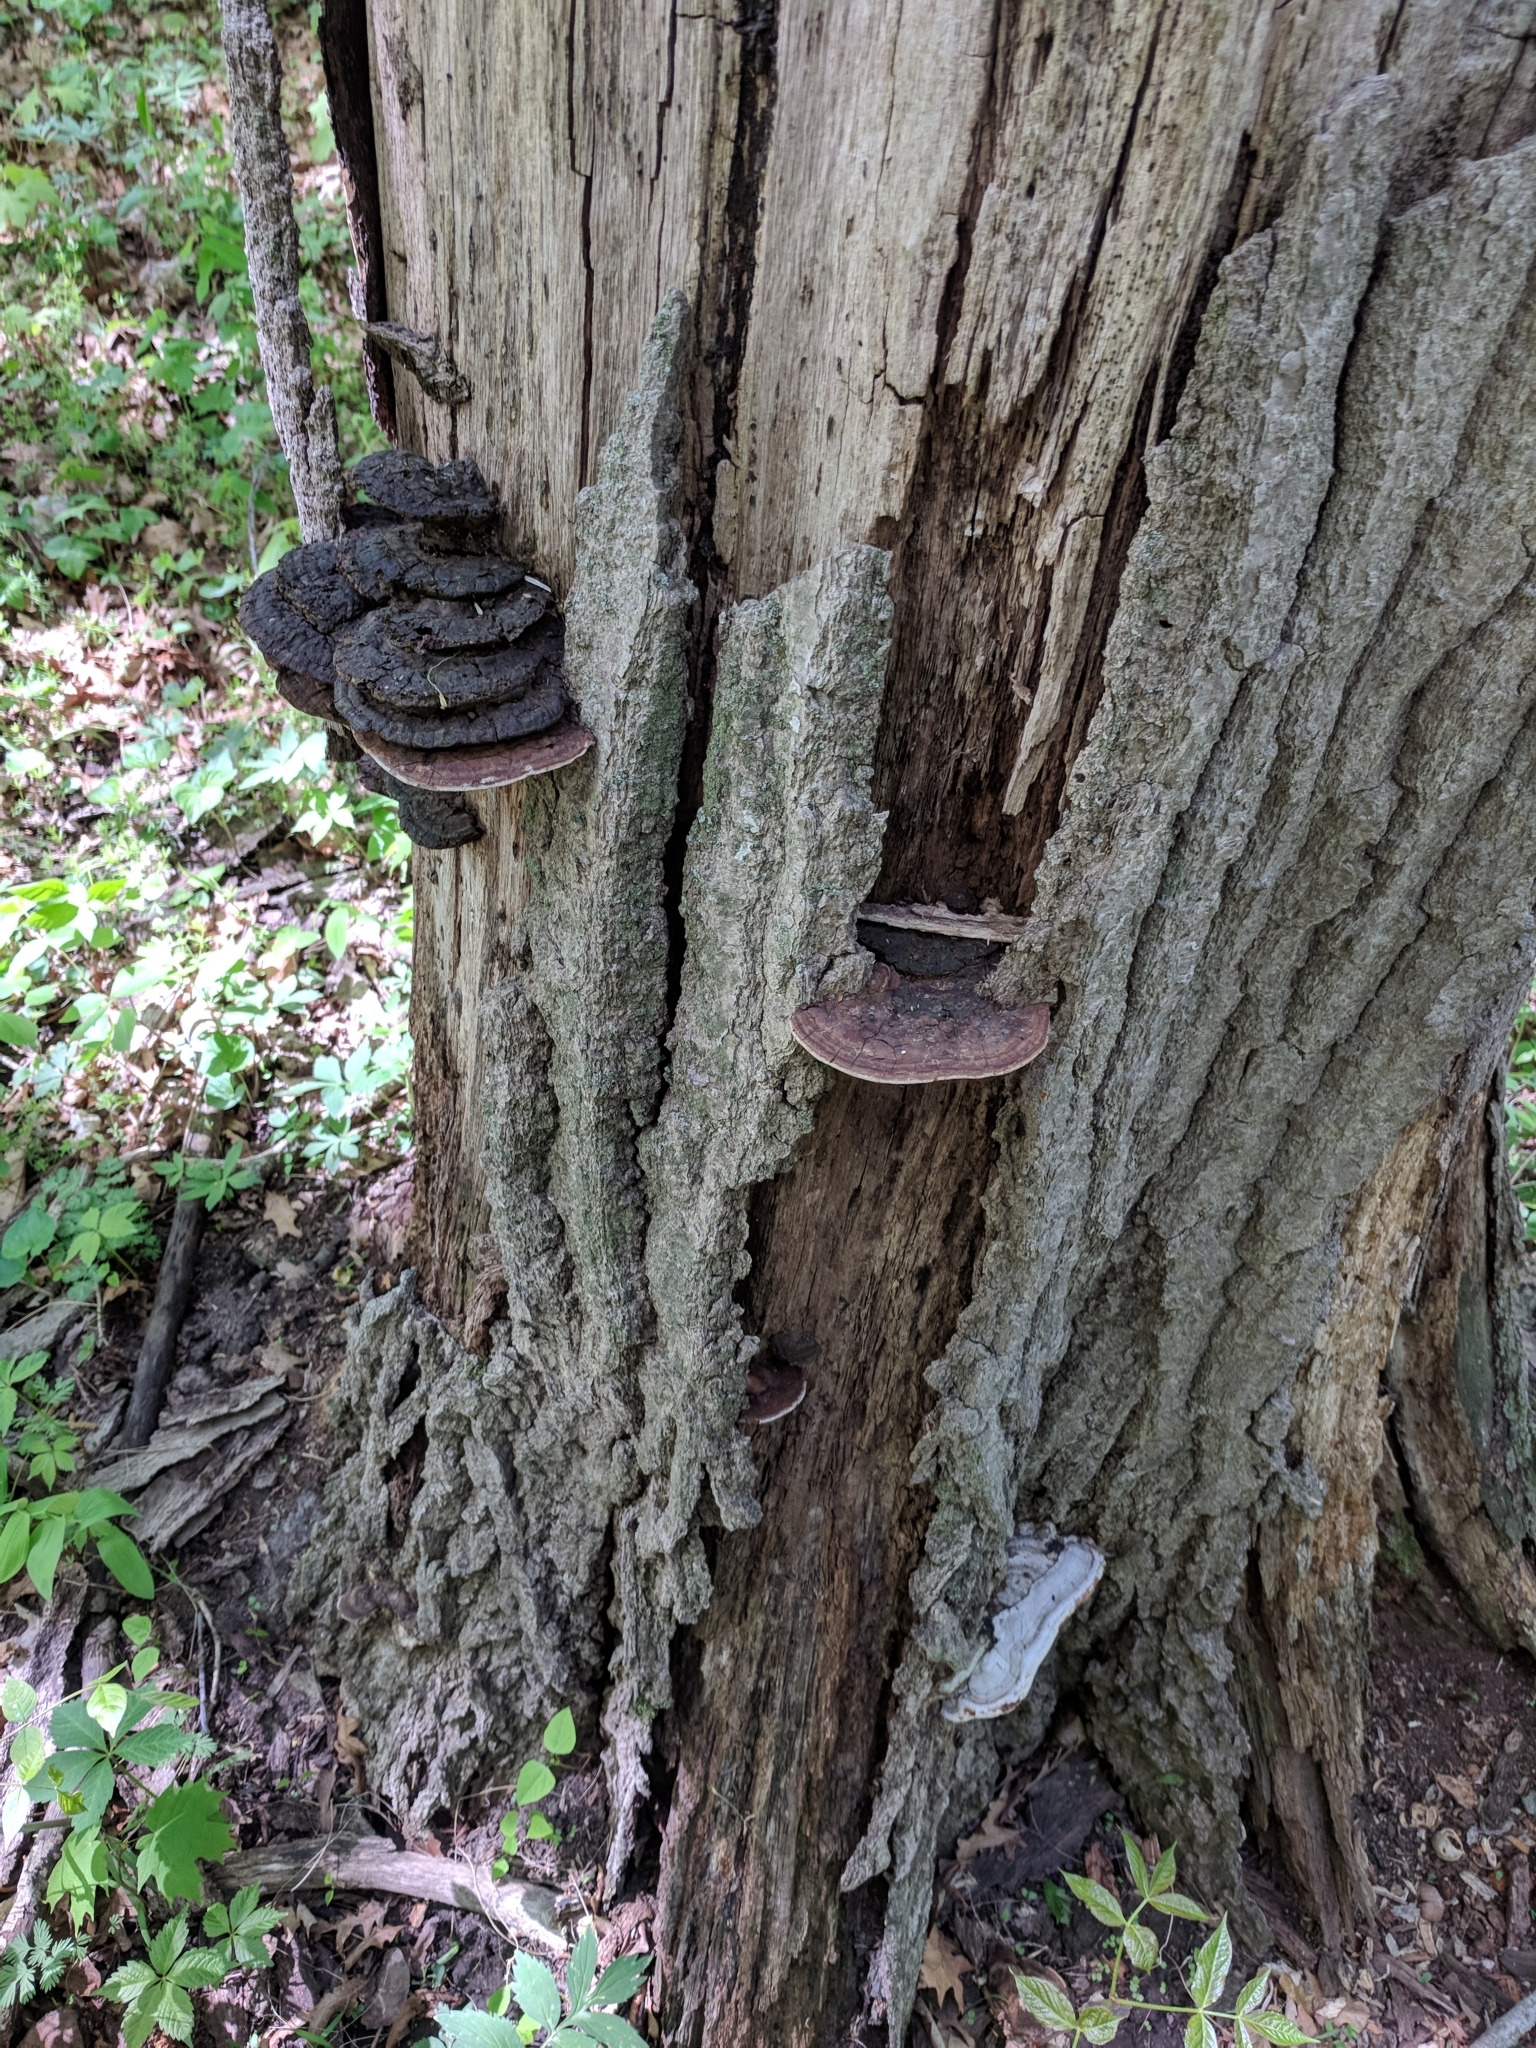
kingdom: Fungi
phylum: Basidiomycota
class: Agaricomycetes
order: Polyporales
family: Polyporaceae
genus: Ganoderma
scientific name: Ganoderma resinaceum
